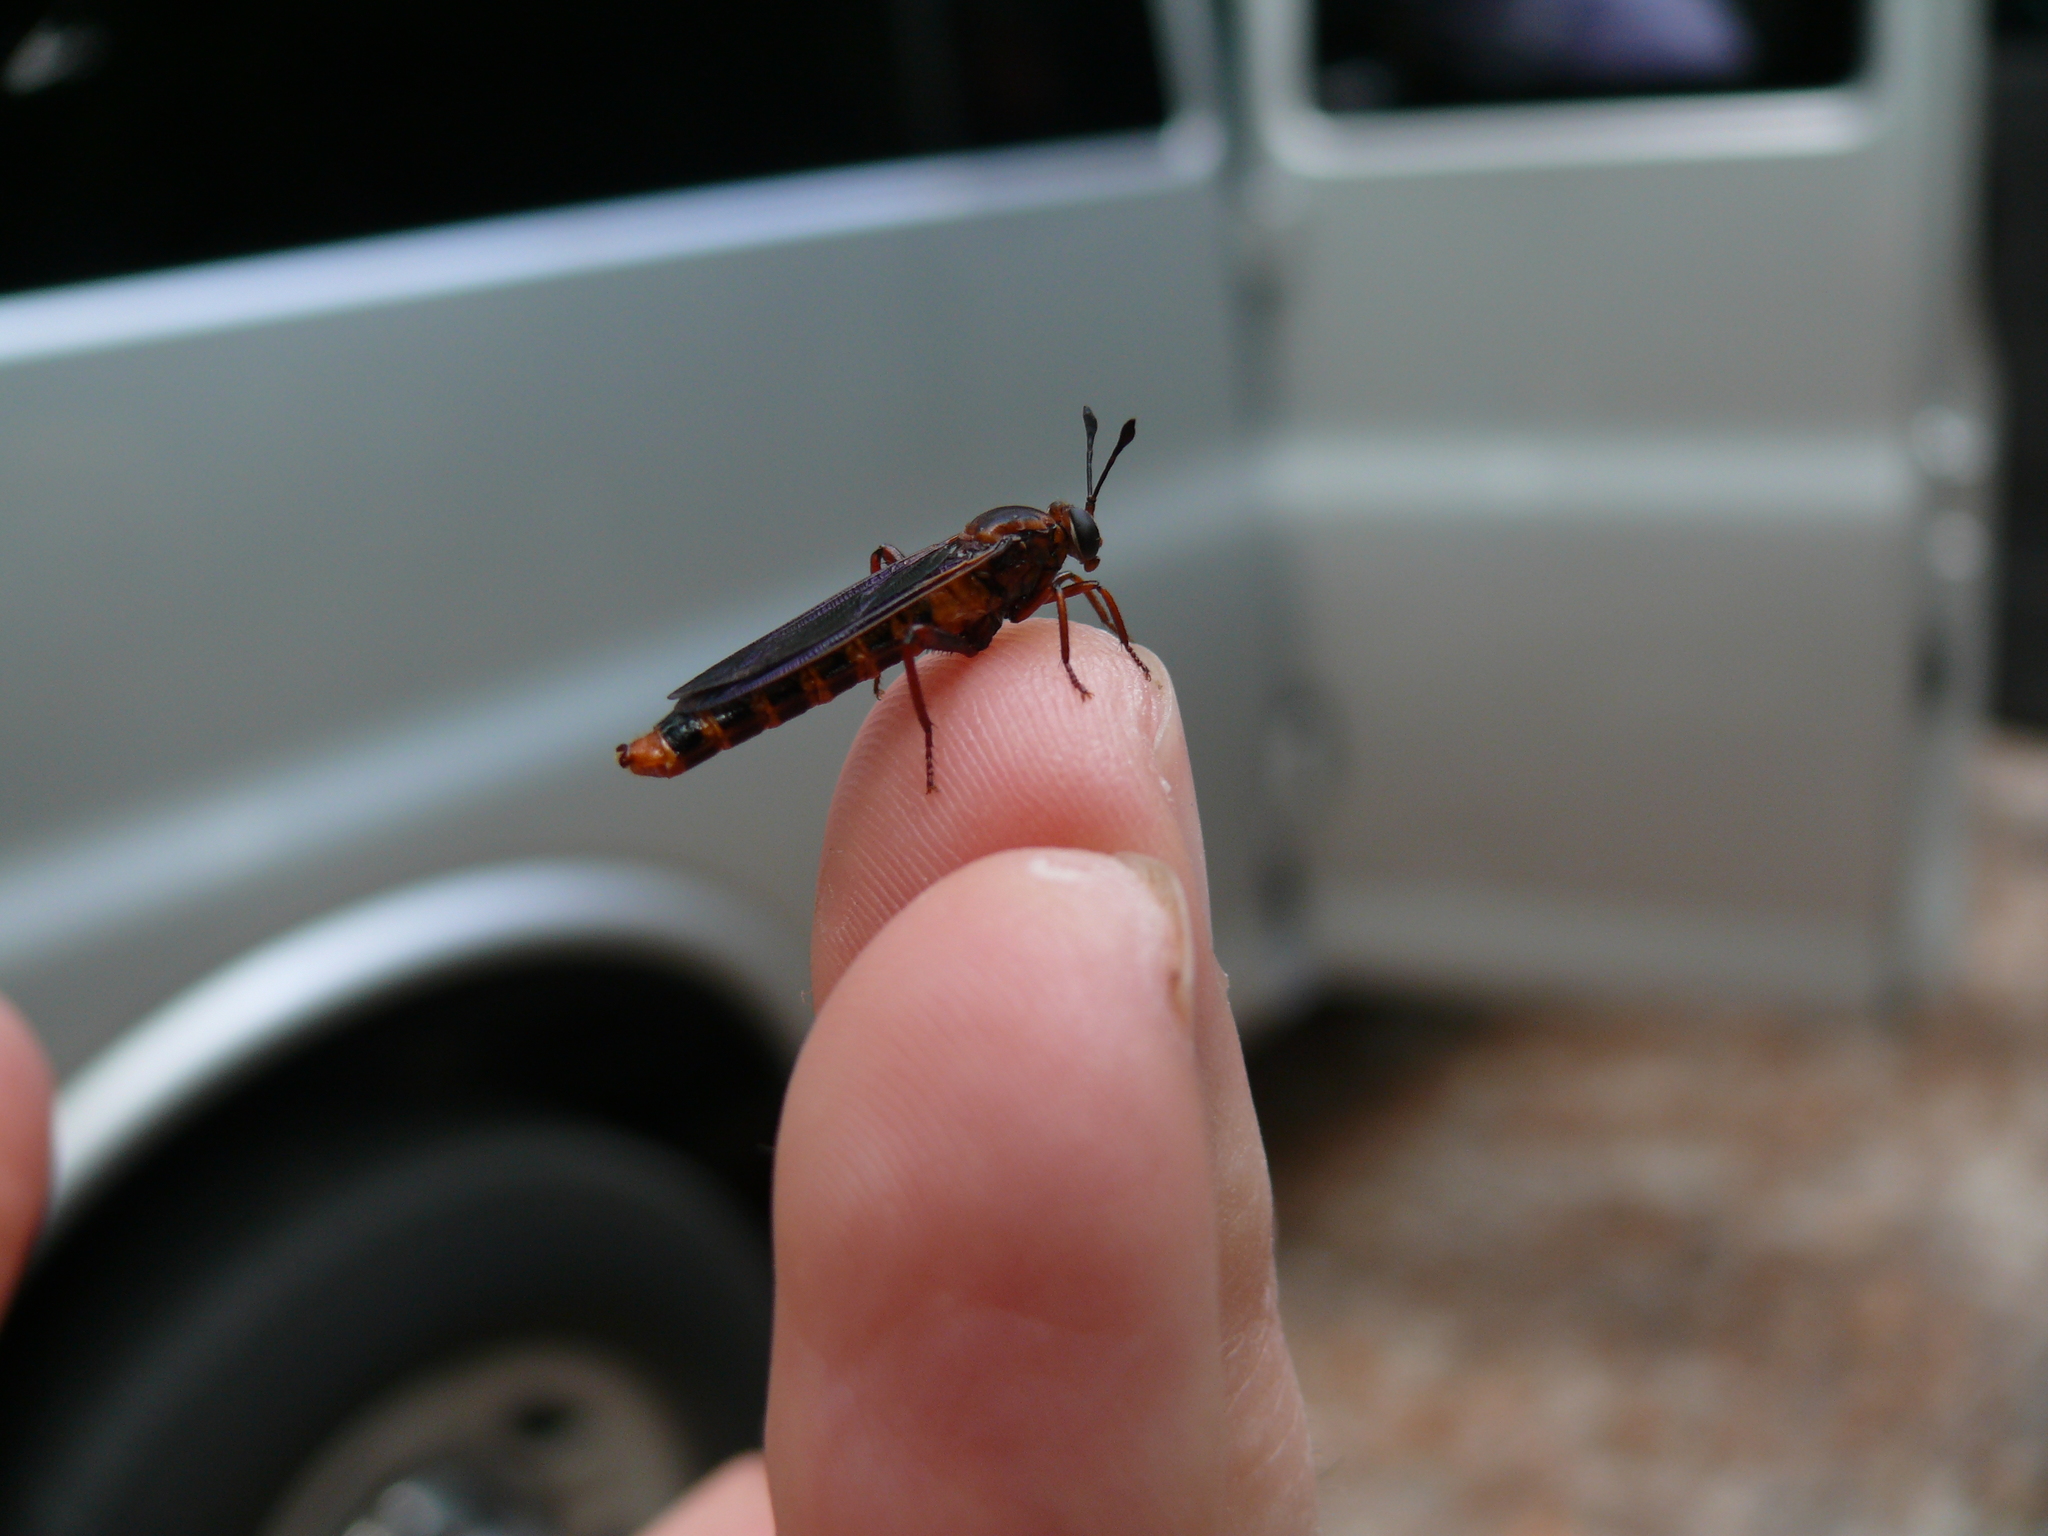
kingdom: Animalia
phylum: Arthropoda
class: Insecta
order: Diptera
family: Mydidae
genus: Phyllomydas
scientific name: Phyllomydas parvulus
